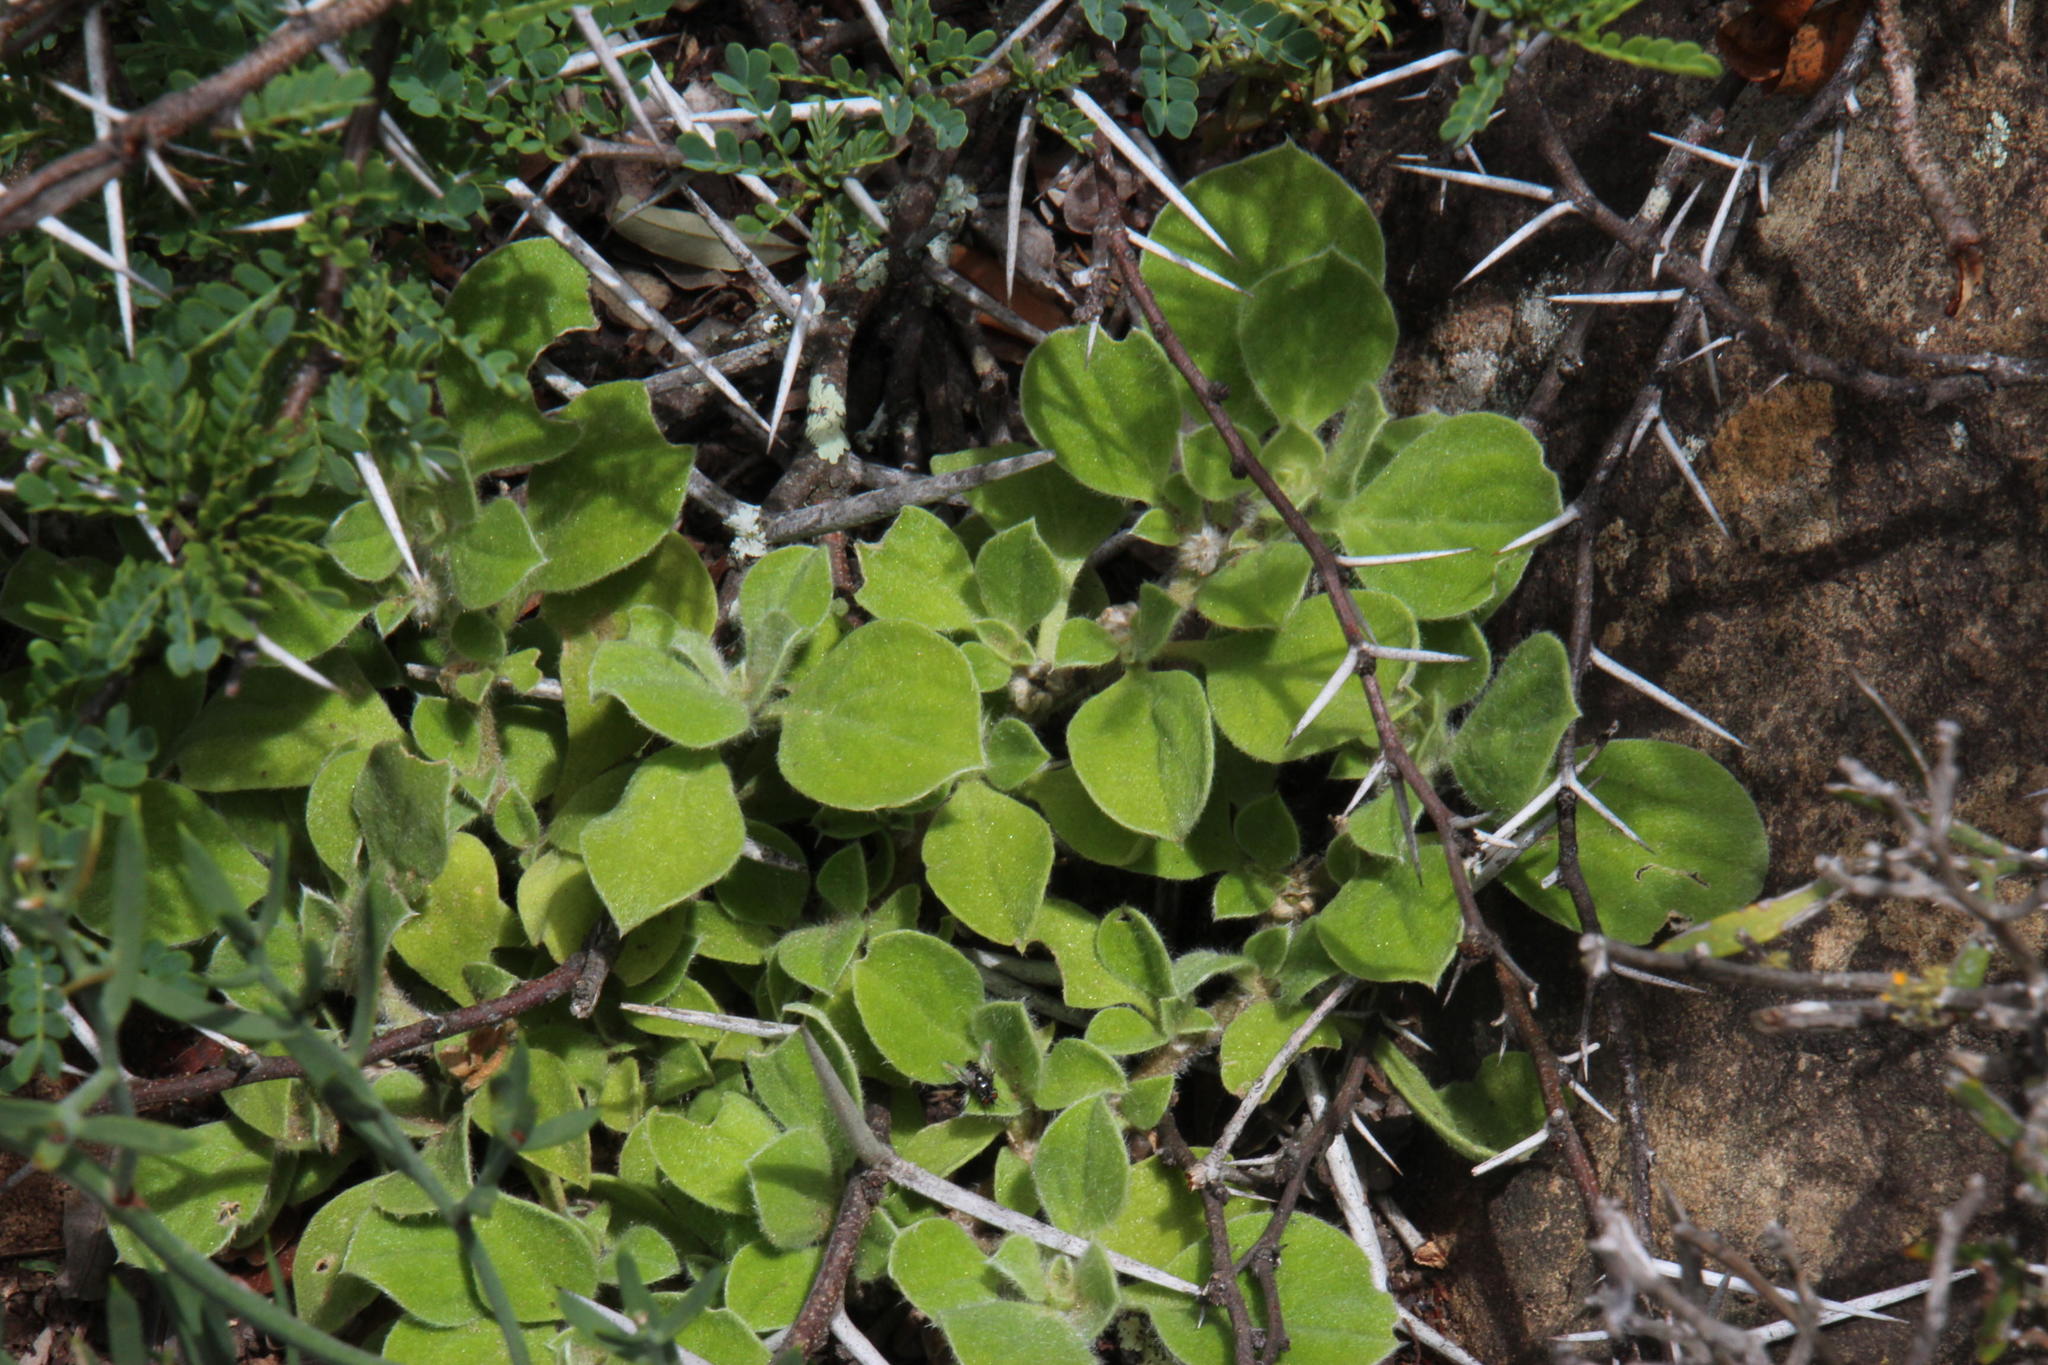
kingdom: Plantae
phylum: Tracheophyta
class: Magnoliopsida
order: Caryophyllales
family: Aizoaceae
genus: Aizoon
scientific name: Aizoon glinoides
